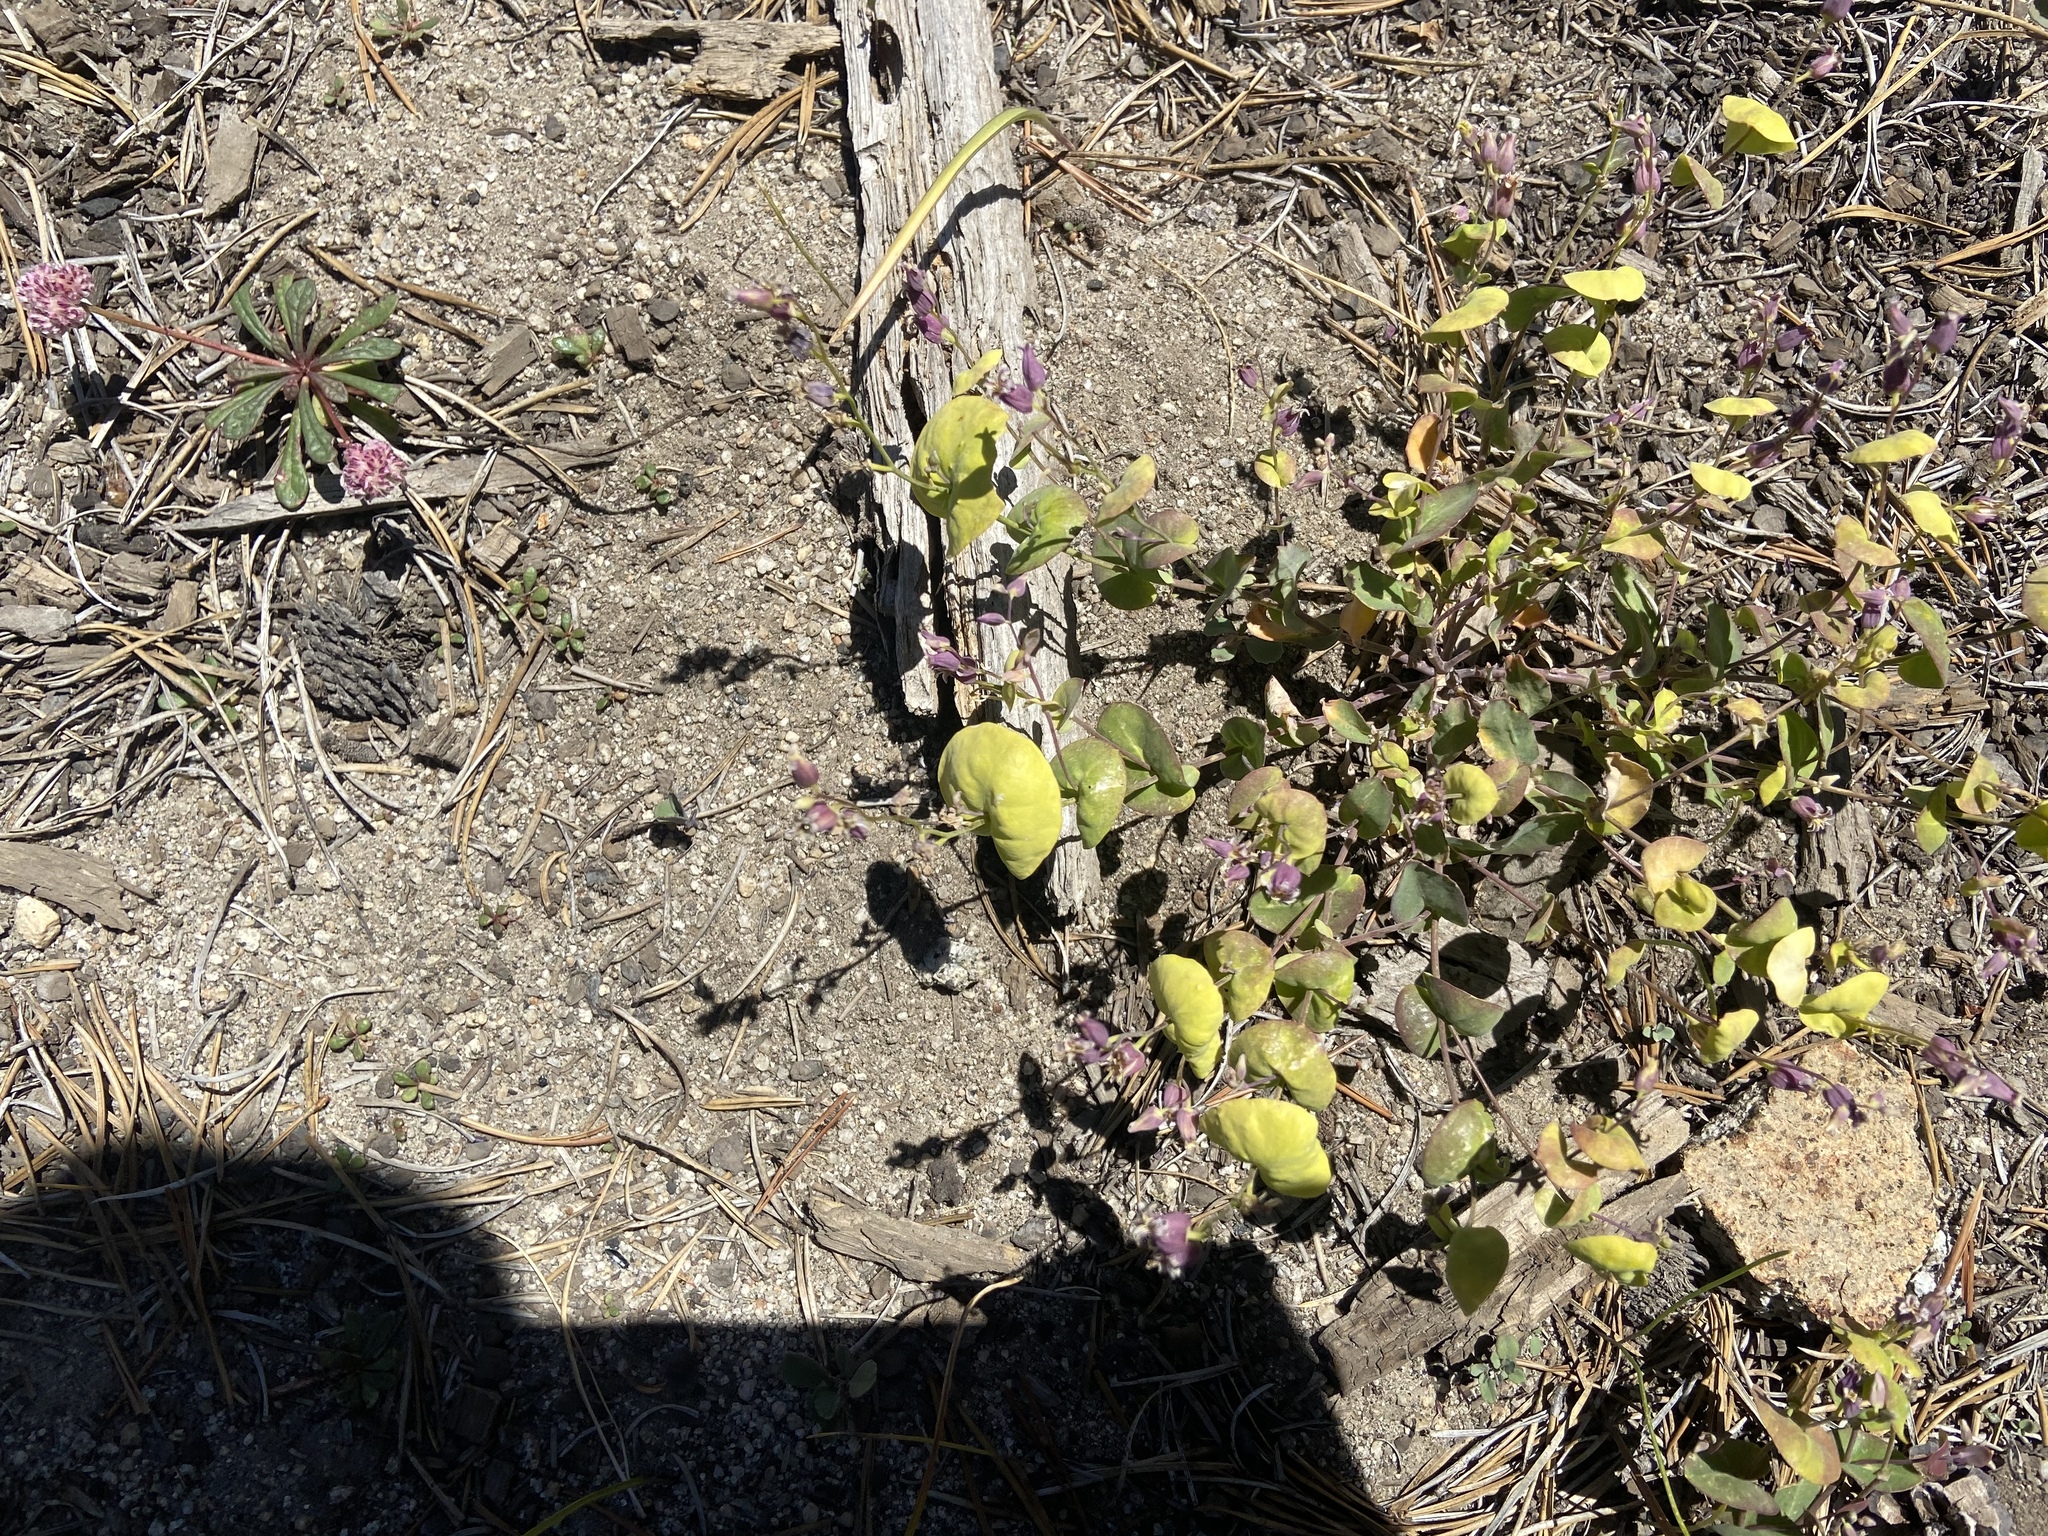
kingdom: Plantae
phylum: Tracheophyta
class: Magnoliopsida
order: Brassicales
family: Brassicaceae
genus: Streptanthus
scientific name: Streptanthus tortuosus
